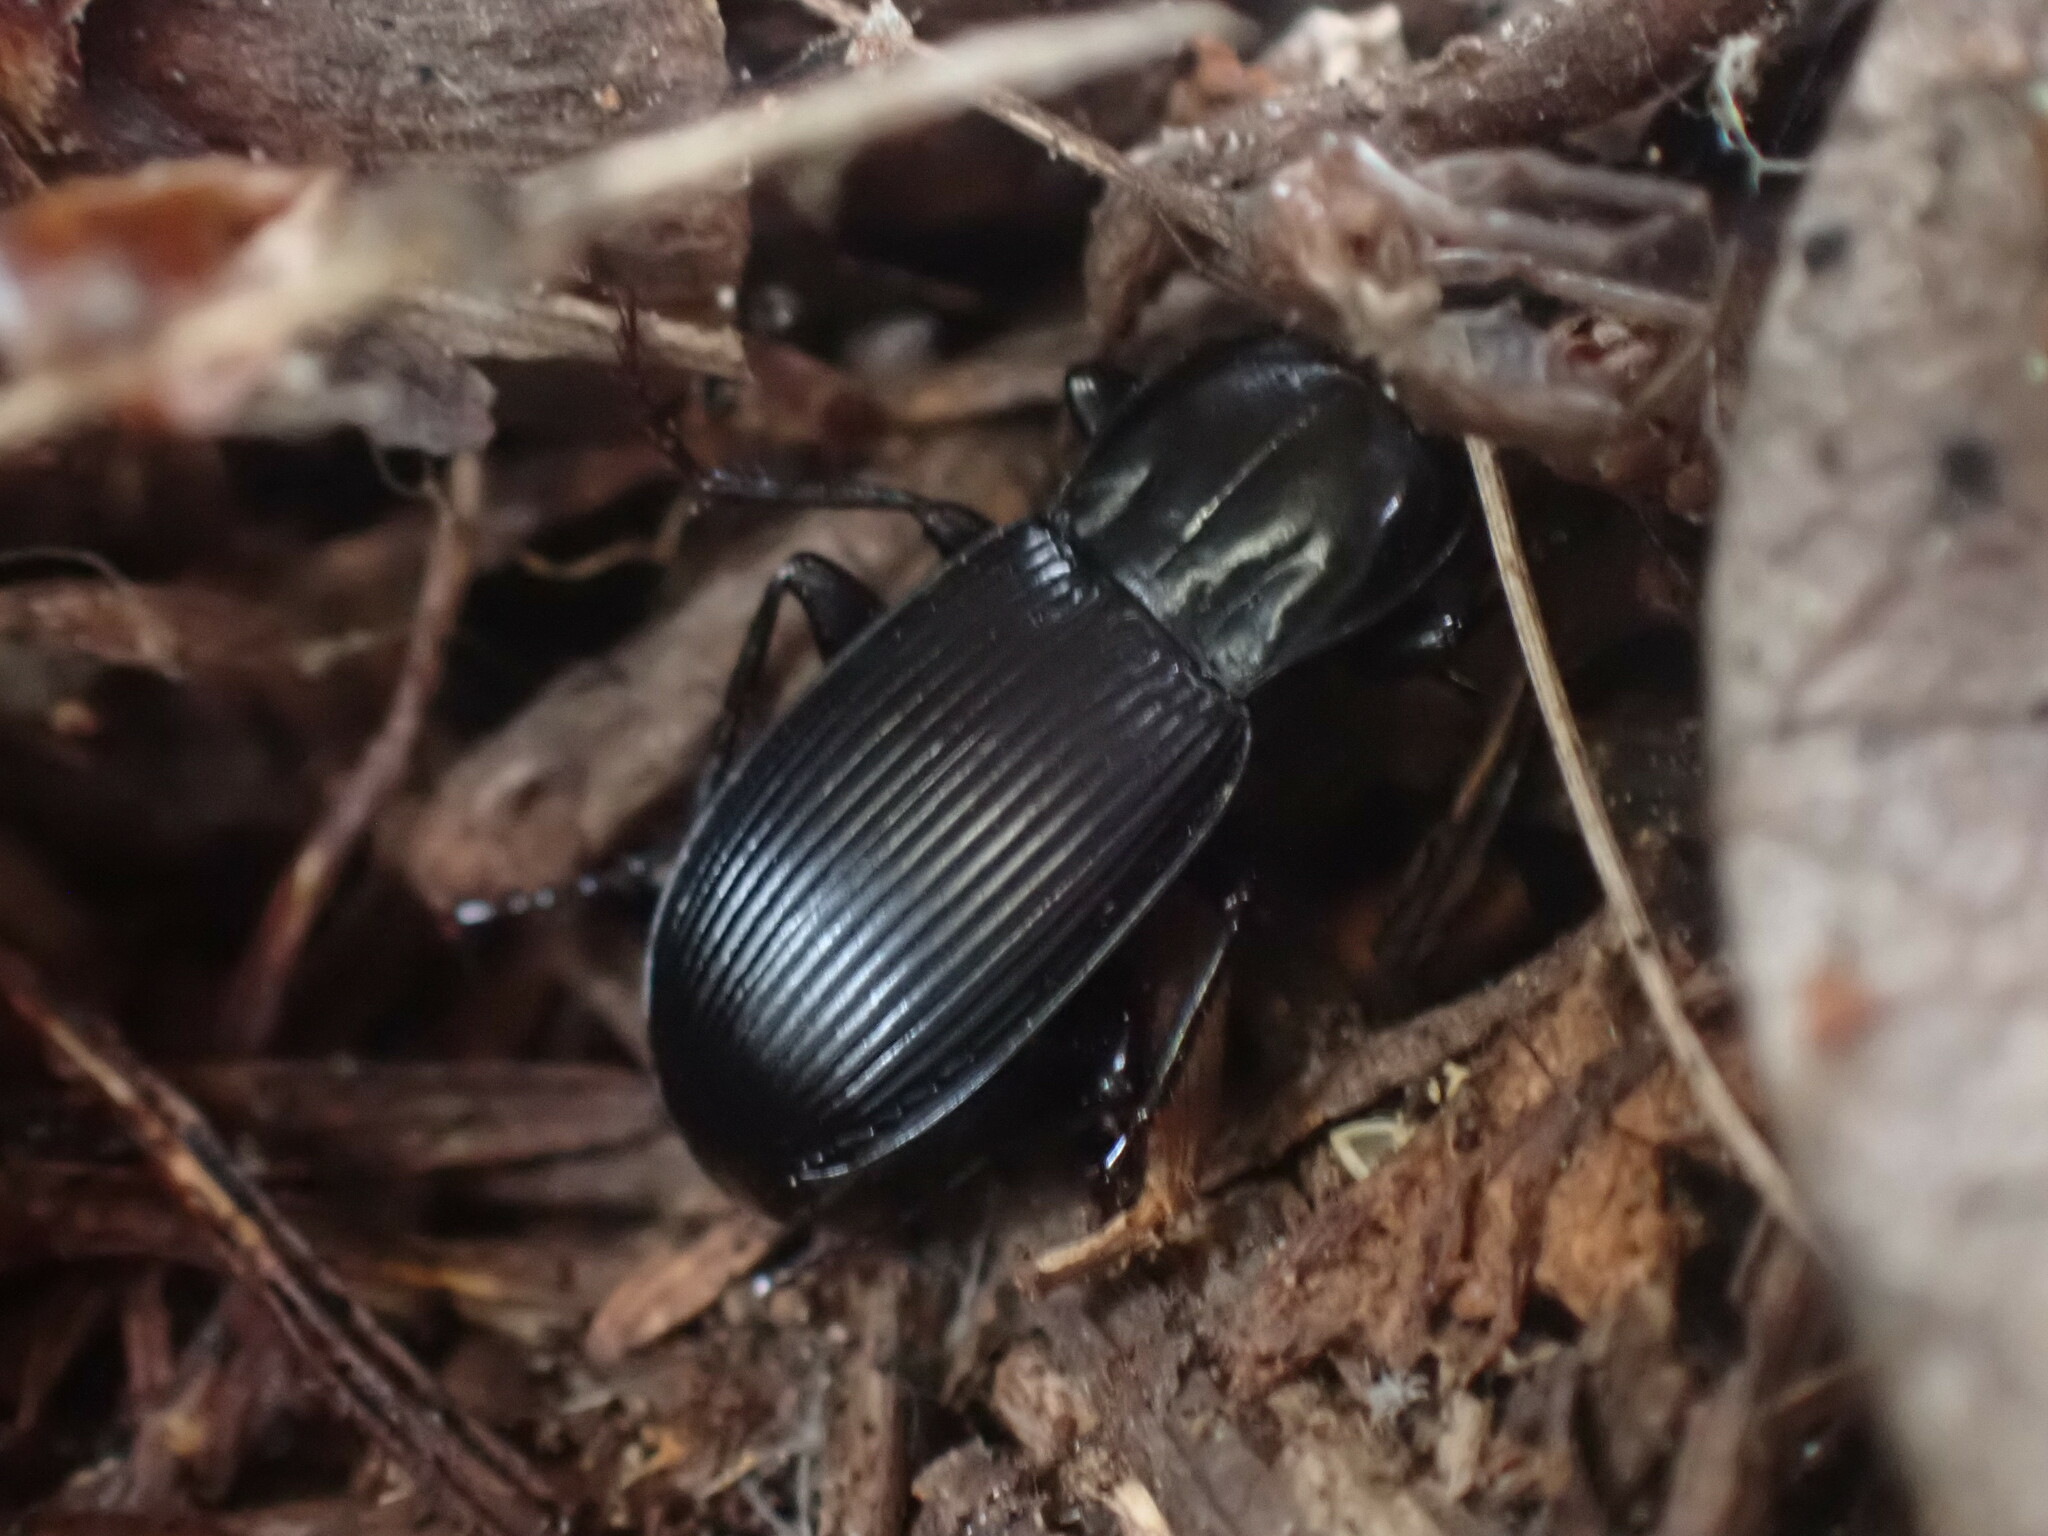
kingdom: Animalia
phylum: Arthropoda
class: Insecta
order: Coleoptera
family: Carabidae
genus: Pterostichus
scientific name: Pterostichus algidus
